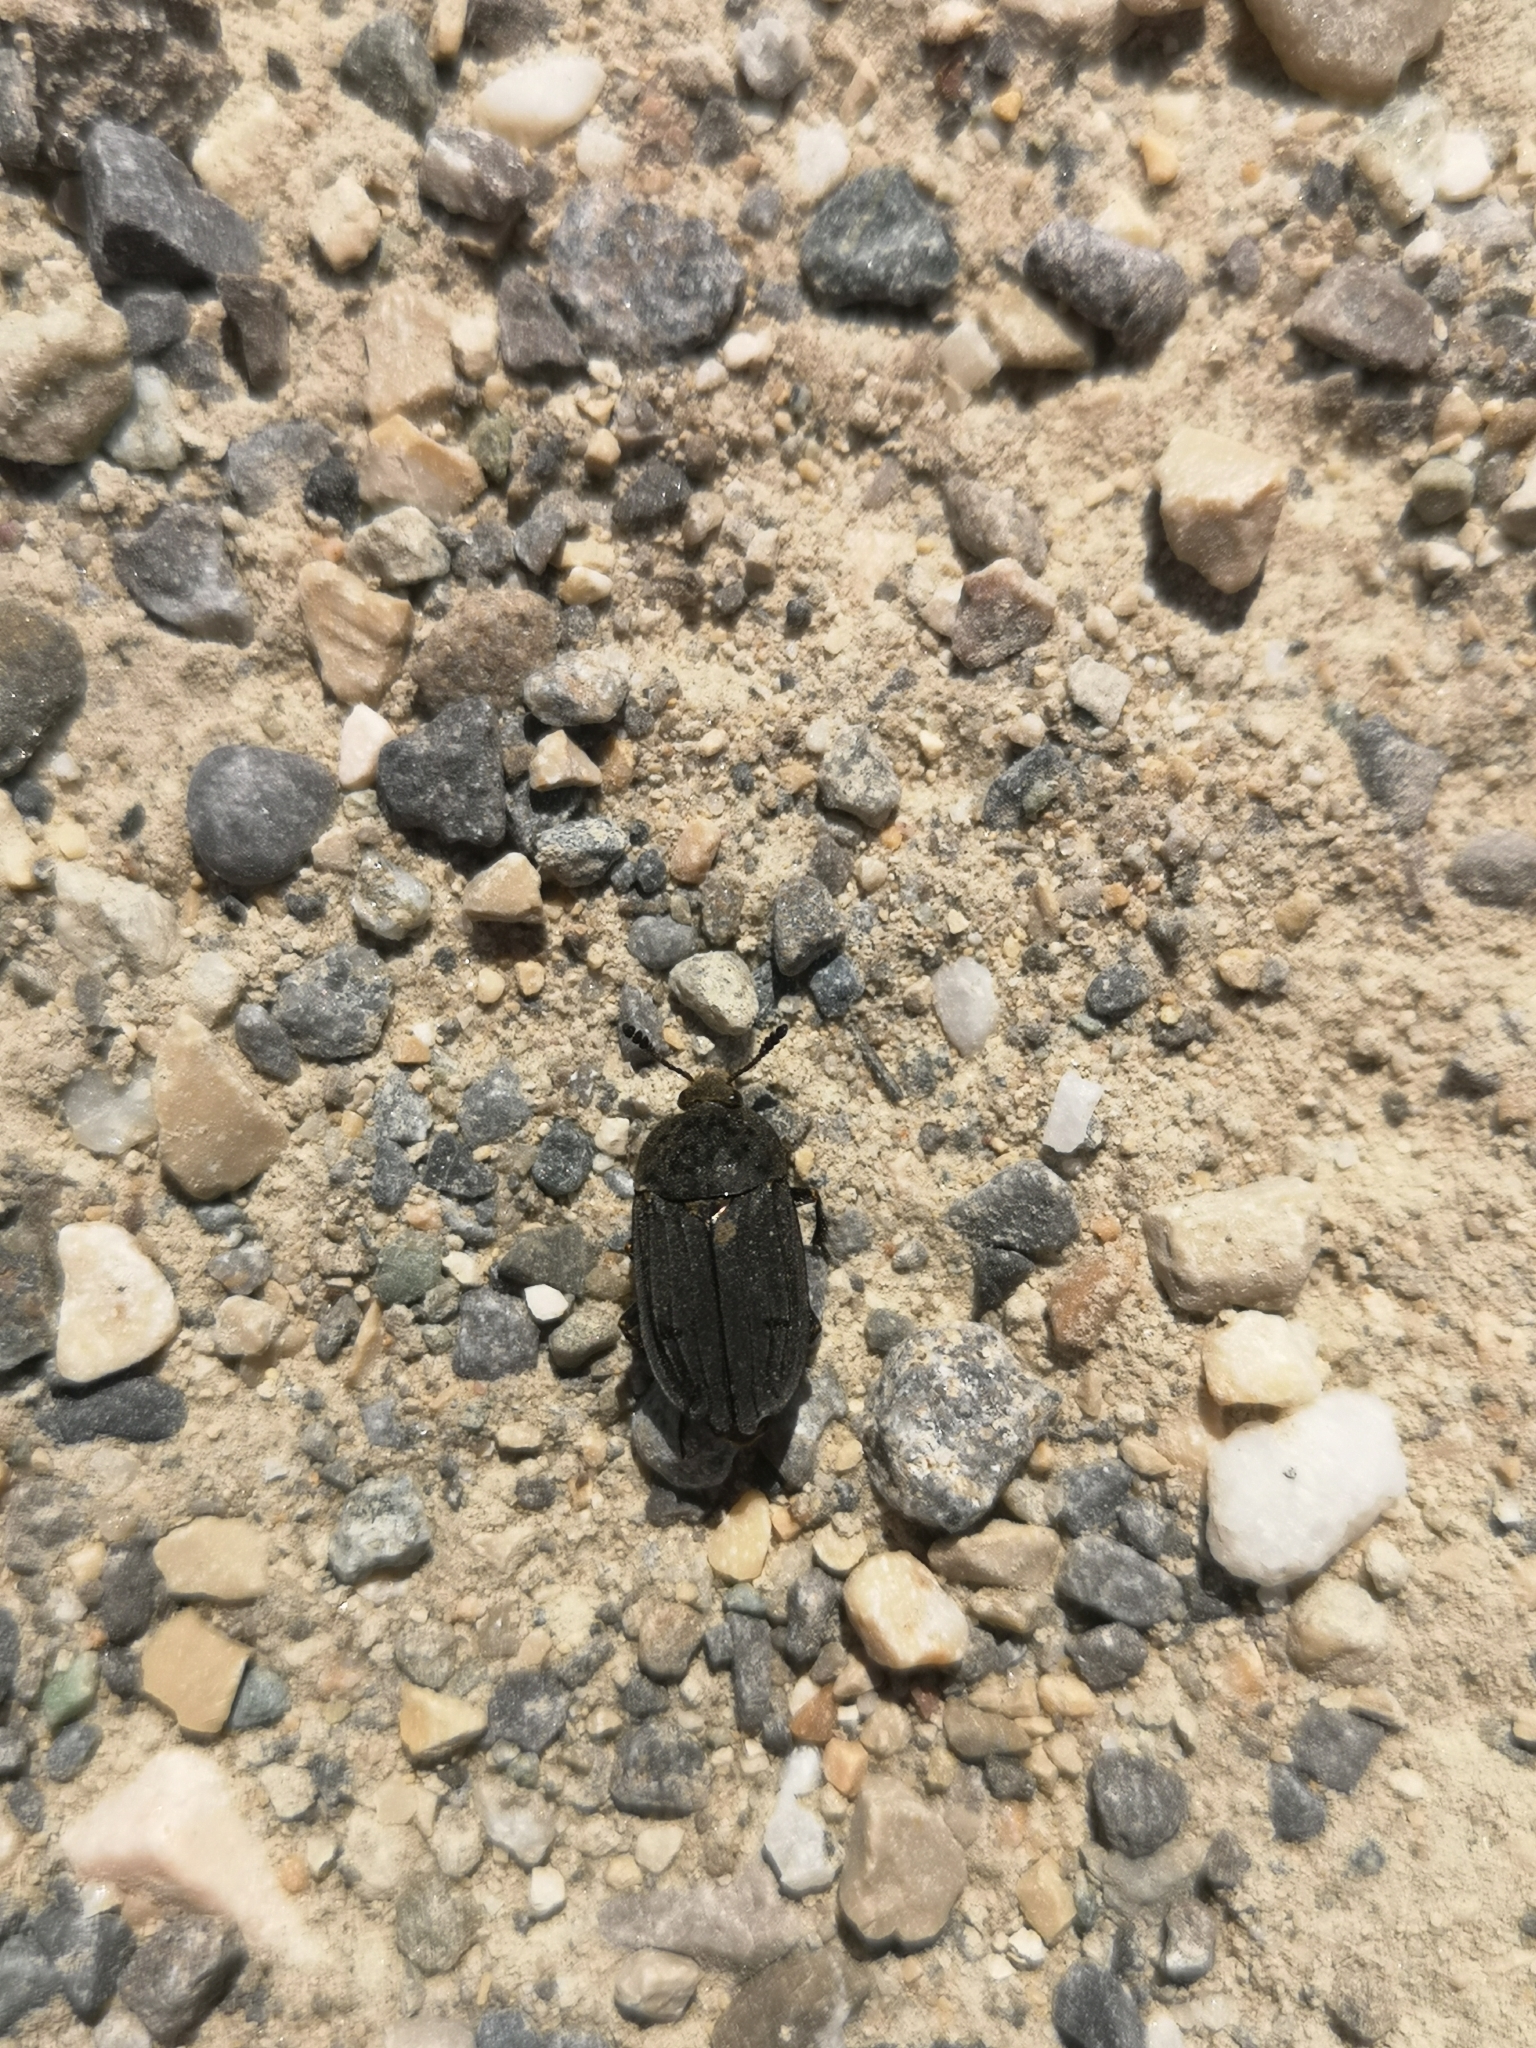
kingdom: Animalia
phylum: Arthropoda
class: Insecta
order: Coleoptera
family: Staphylinidae
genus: Thanatophilus
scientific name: Thanatophilus sinuatus
